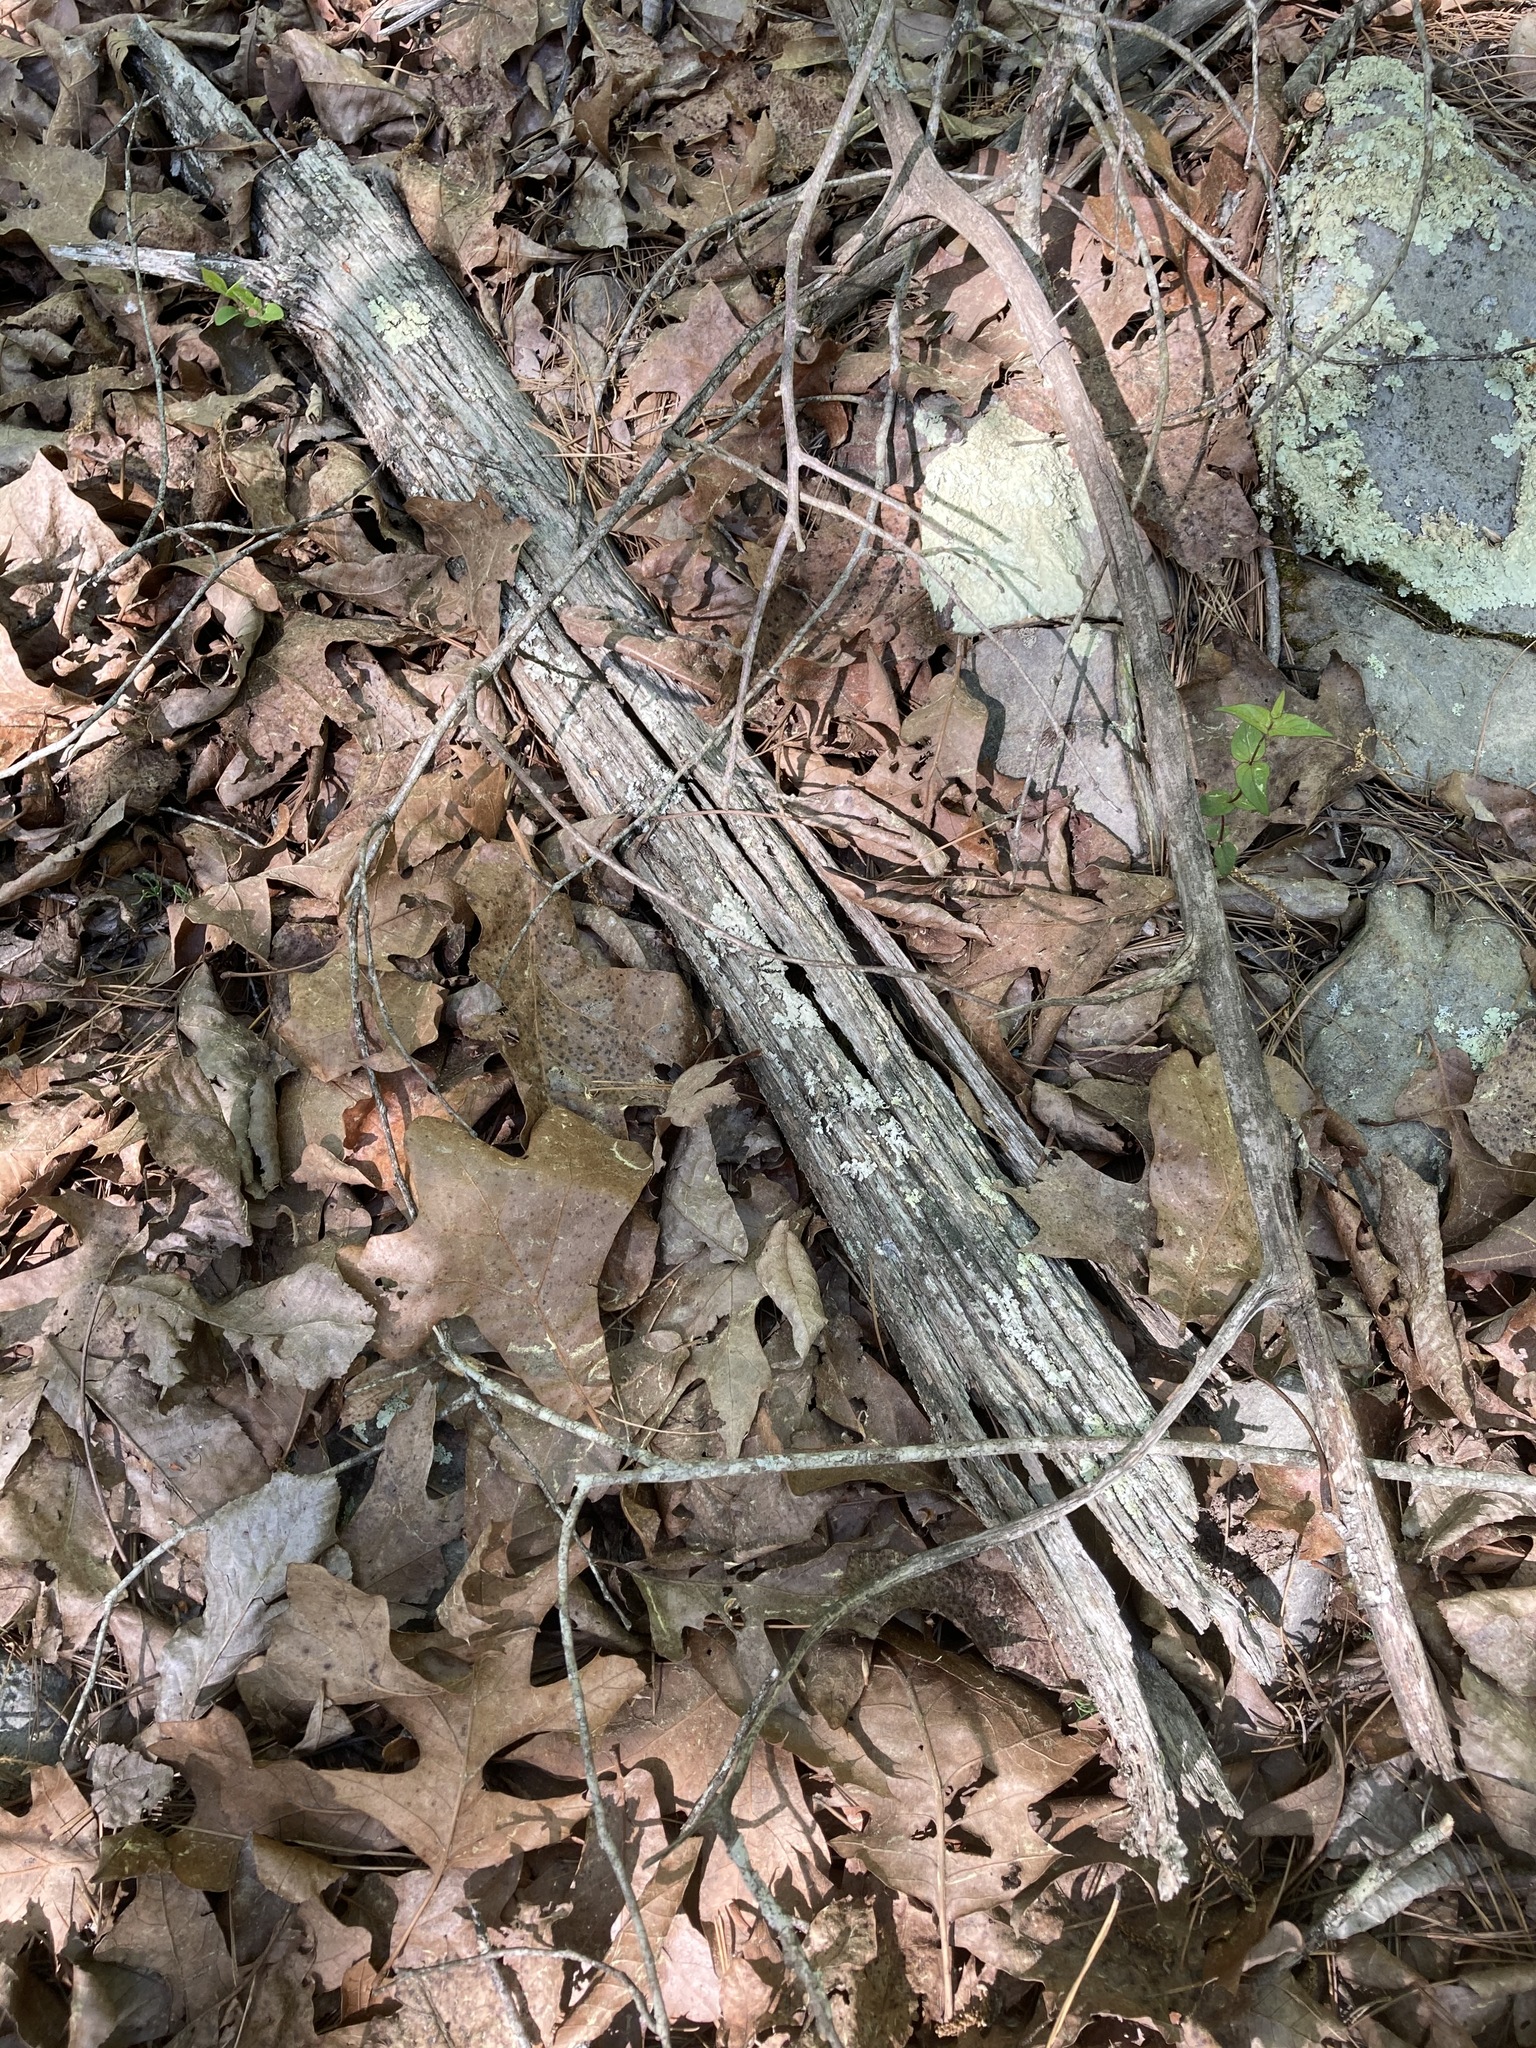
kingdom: Plantae
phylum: Tracheophyta
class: Magnoliopsida
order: Fagales
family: Fagaceae
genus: Castanea
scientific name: Castanea ozarkensis
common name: Ozark chinkapin
